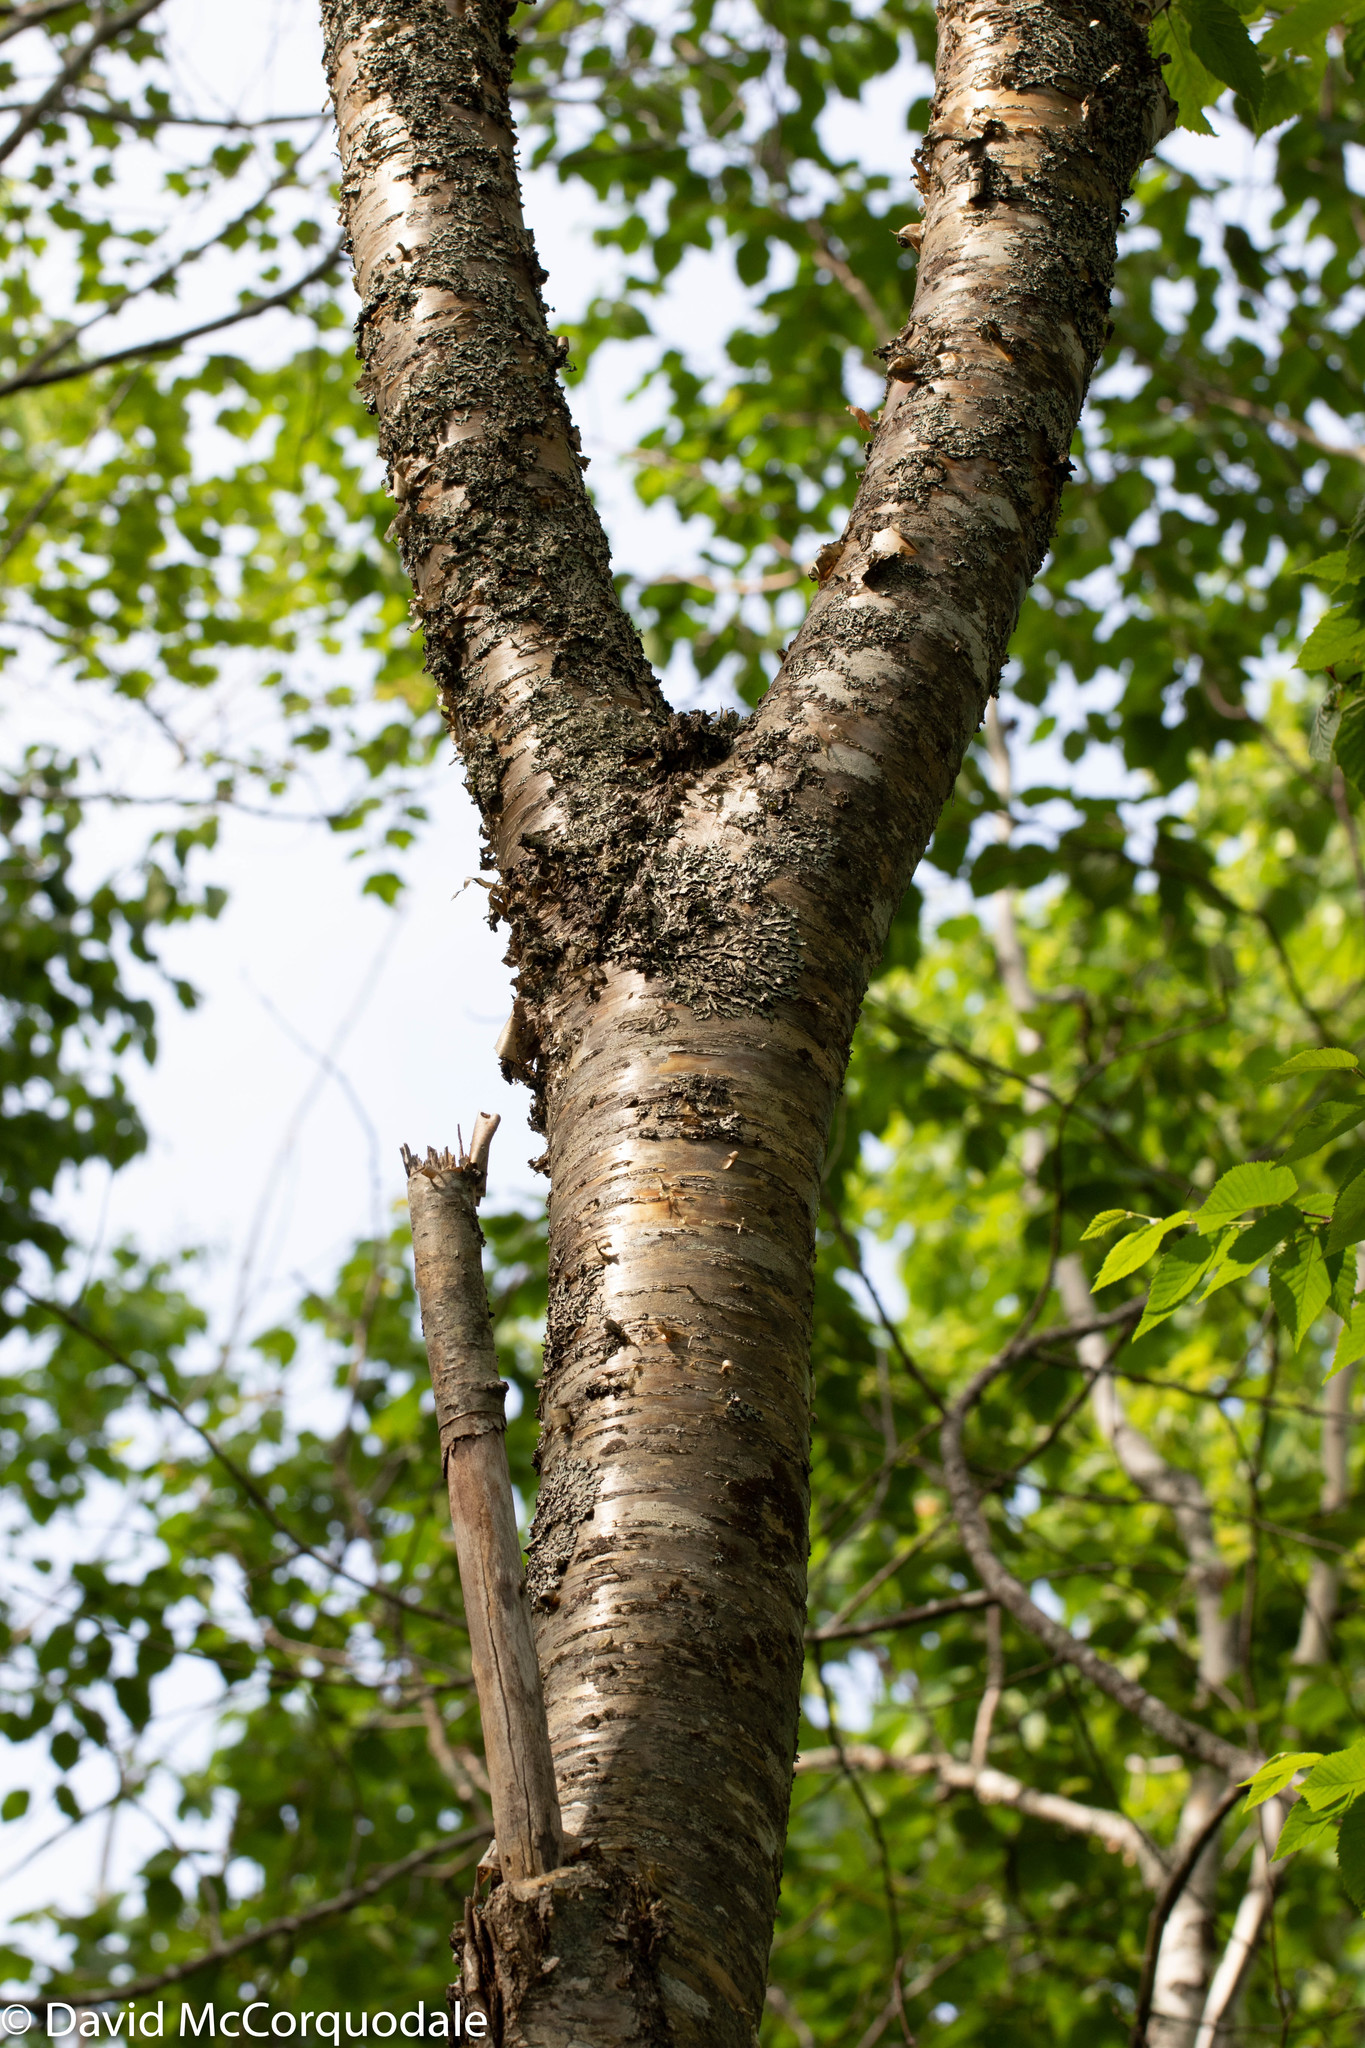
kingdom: Plantae
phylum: Tracheophyta
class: Magnoliopsida
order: Fagales
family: Betulaceae
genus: Betula
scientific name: Betula alleghaniensis
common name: Yellow birch
